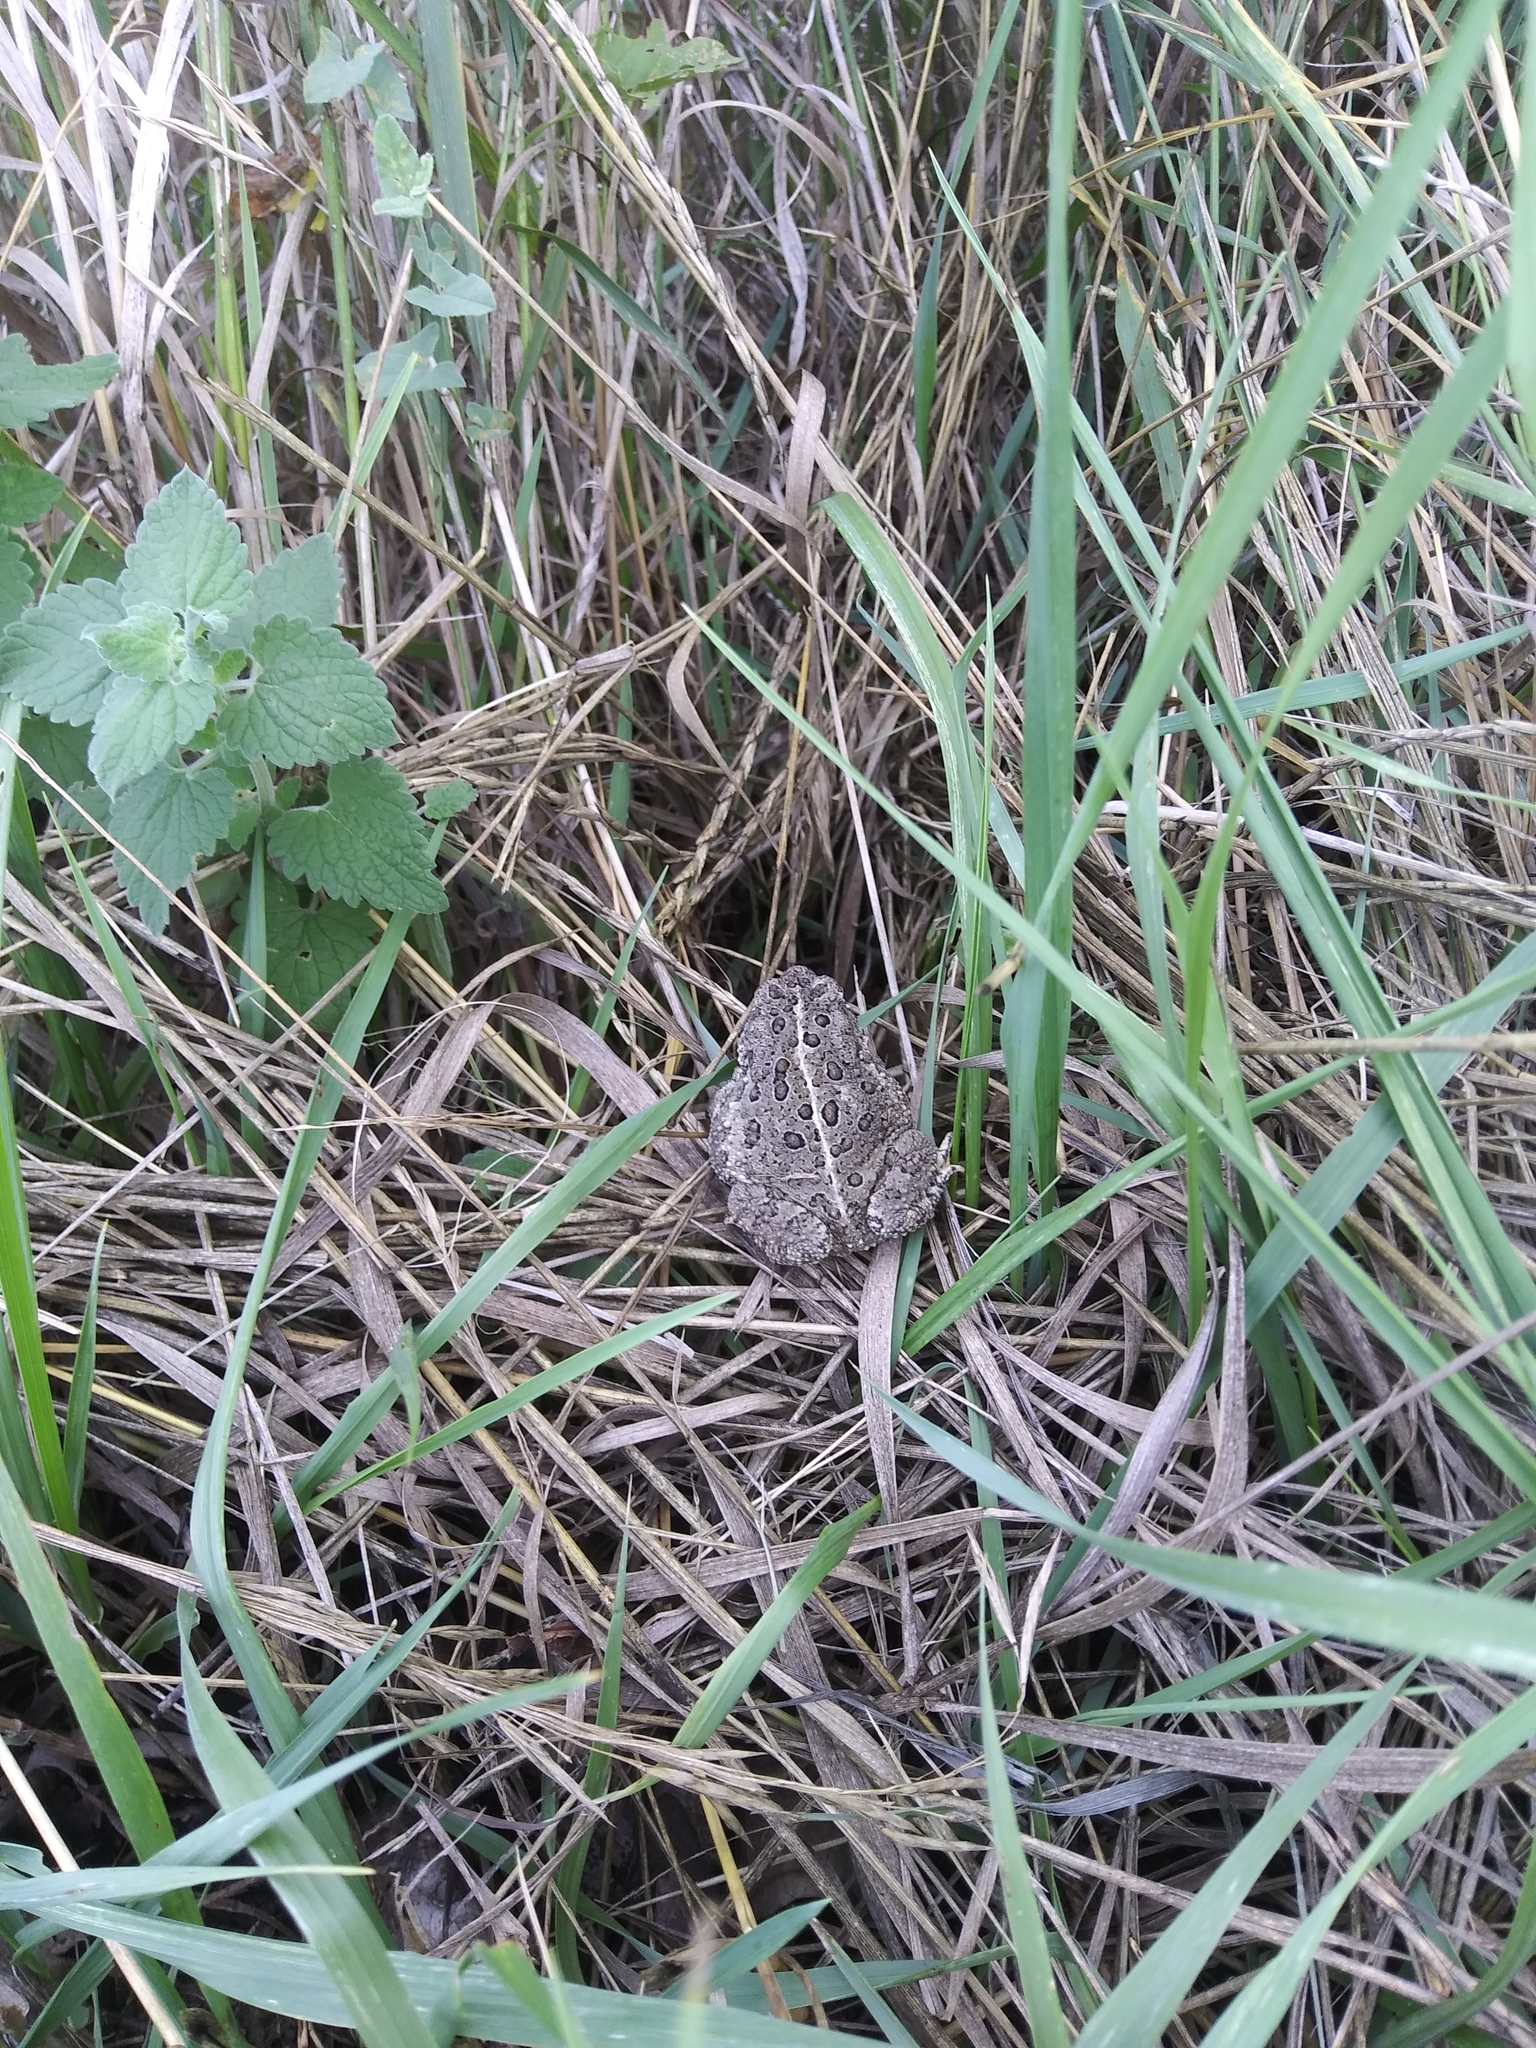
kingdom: Animalia
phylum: Chordata
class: Amphibia
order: Anura
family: Bufonidae
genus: Anaxyrus
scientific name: Anaxyrus woodhousii
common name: Woodhouse's toad
